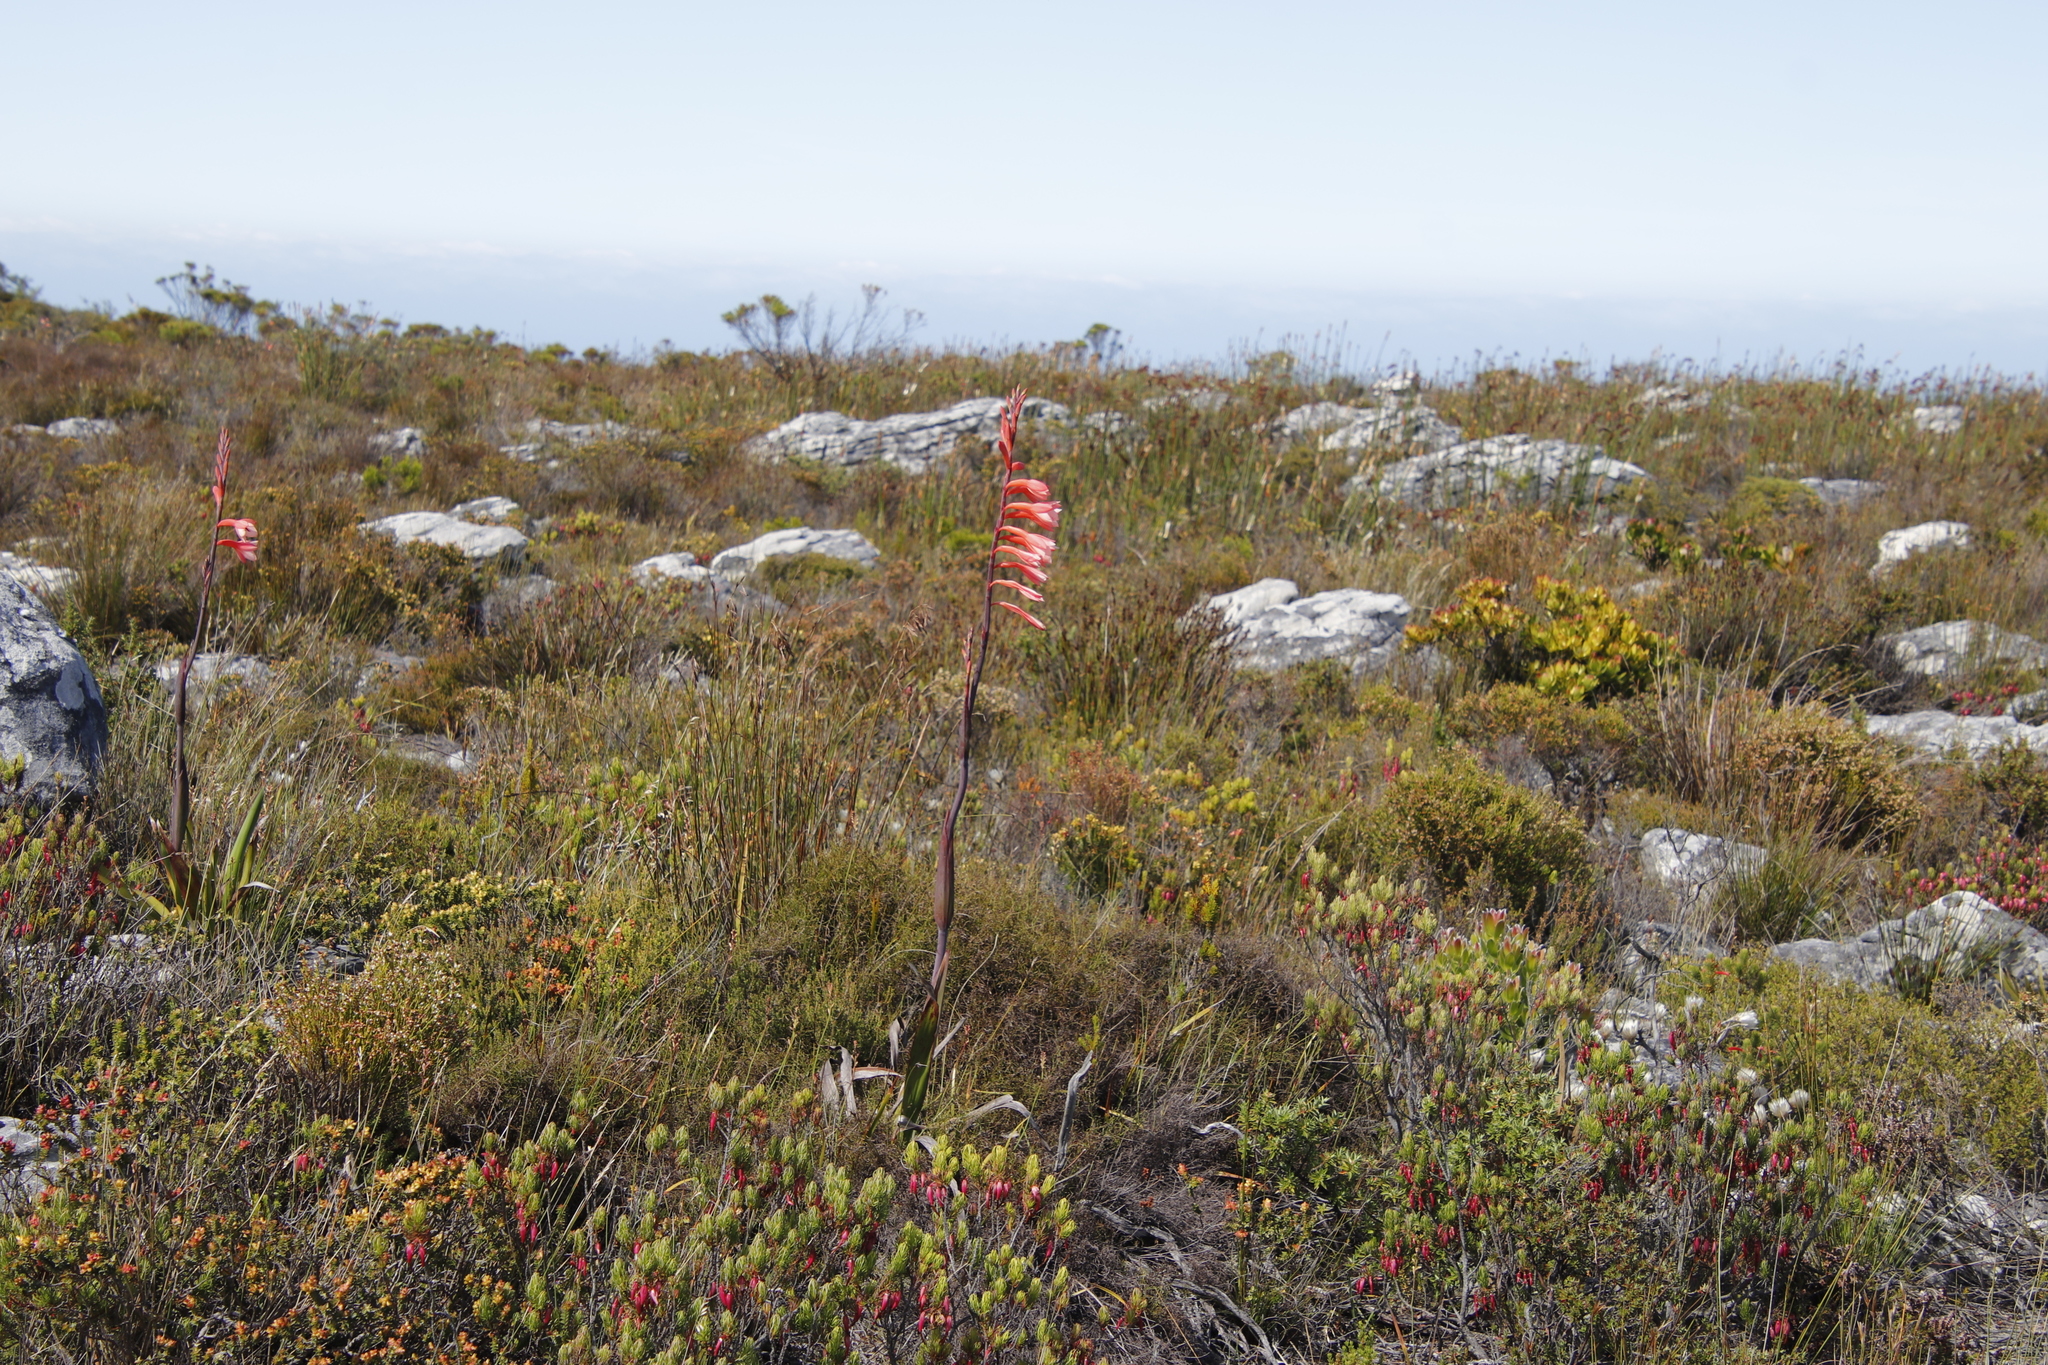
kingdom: Plantae
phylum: Tracheophyta
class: Liliopsida
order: Asparagales
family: Iridaceae
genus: Watsonia
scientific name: Watsonia tabularis
